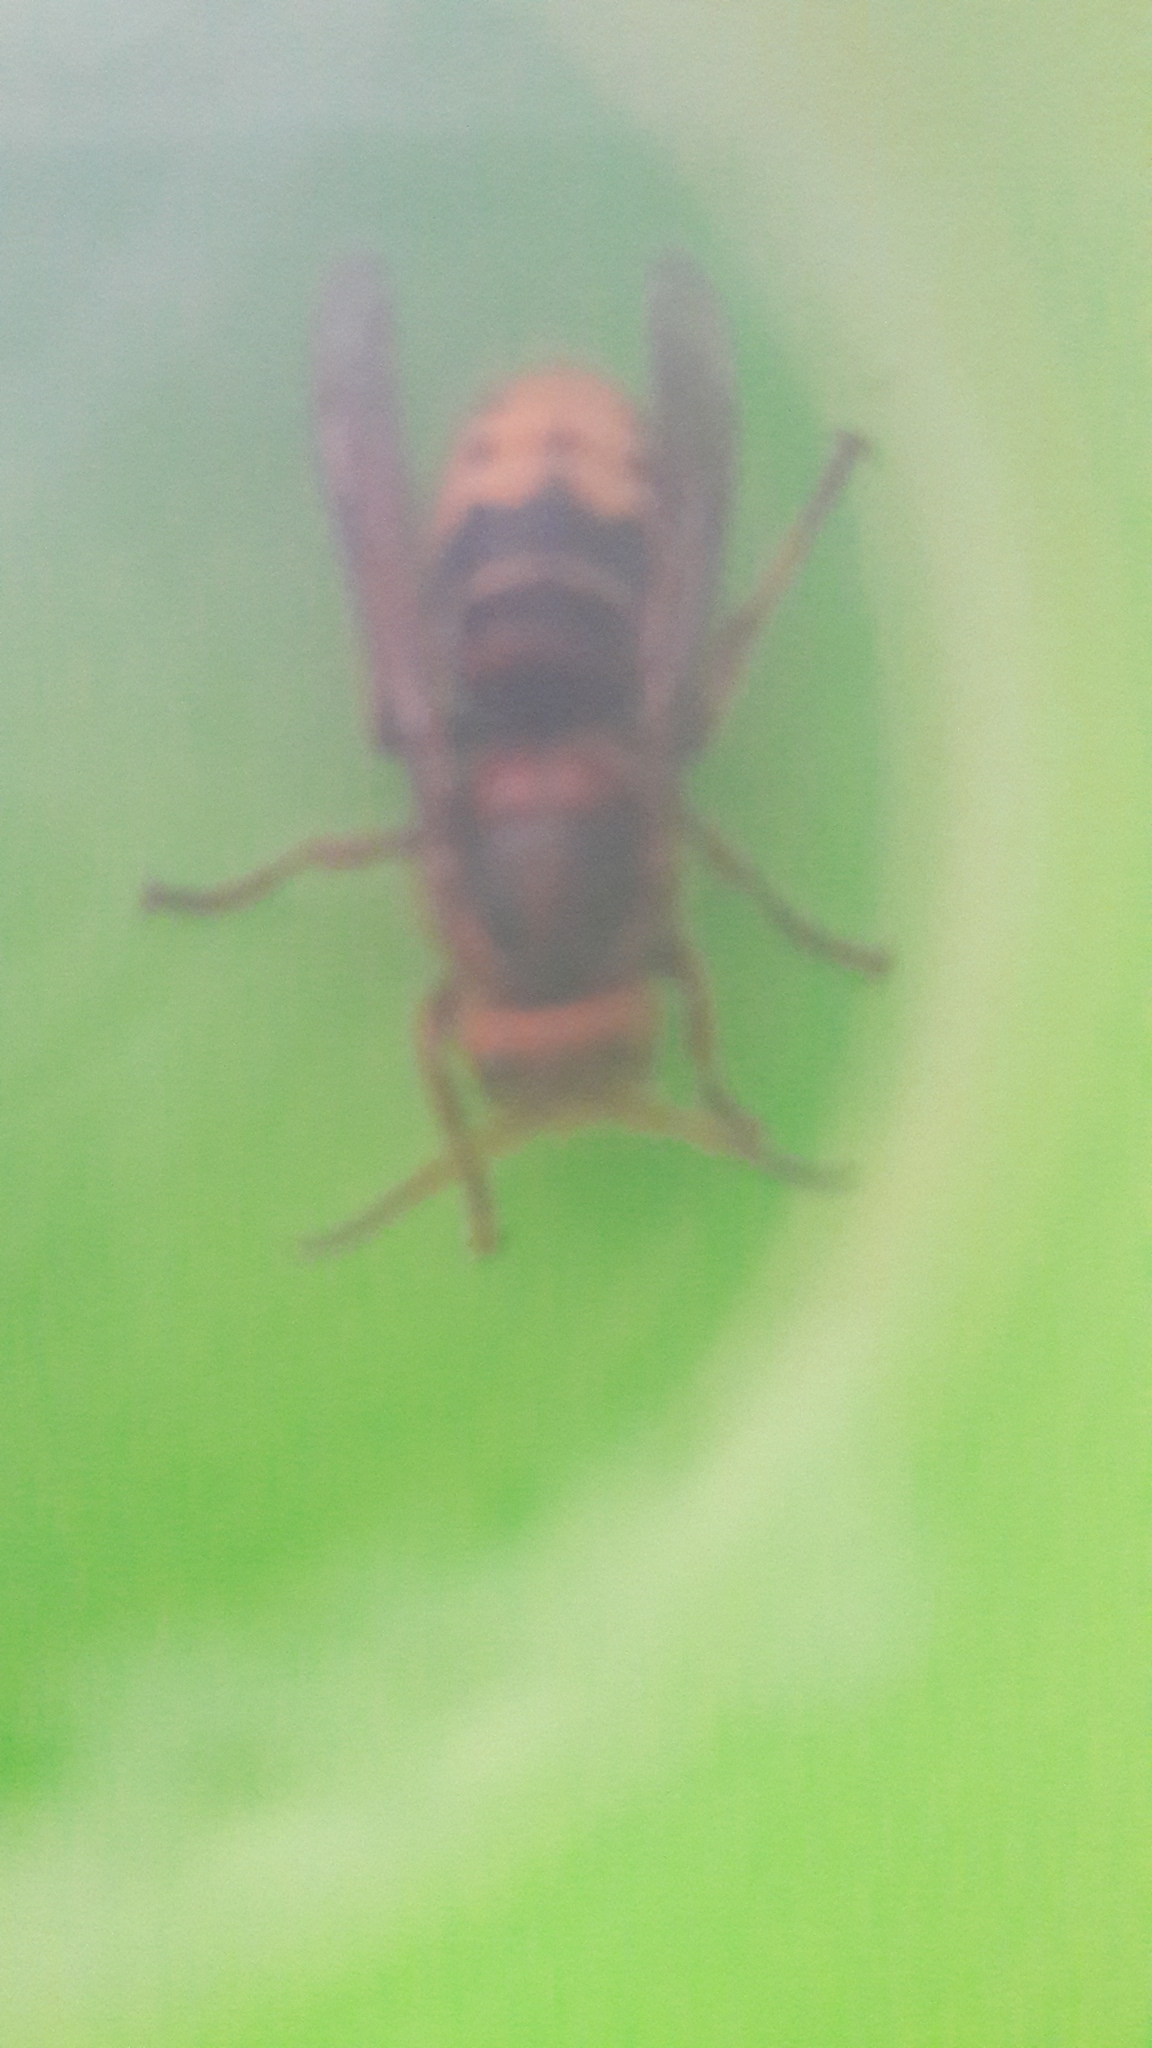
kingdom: Animalia
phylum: Arthropoda
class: Insecta
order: Hymenoptera
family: Vespidae
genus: Vespa
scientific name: Vespa crabro
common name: Hornet
